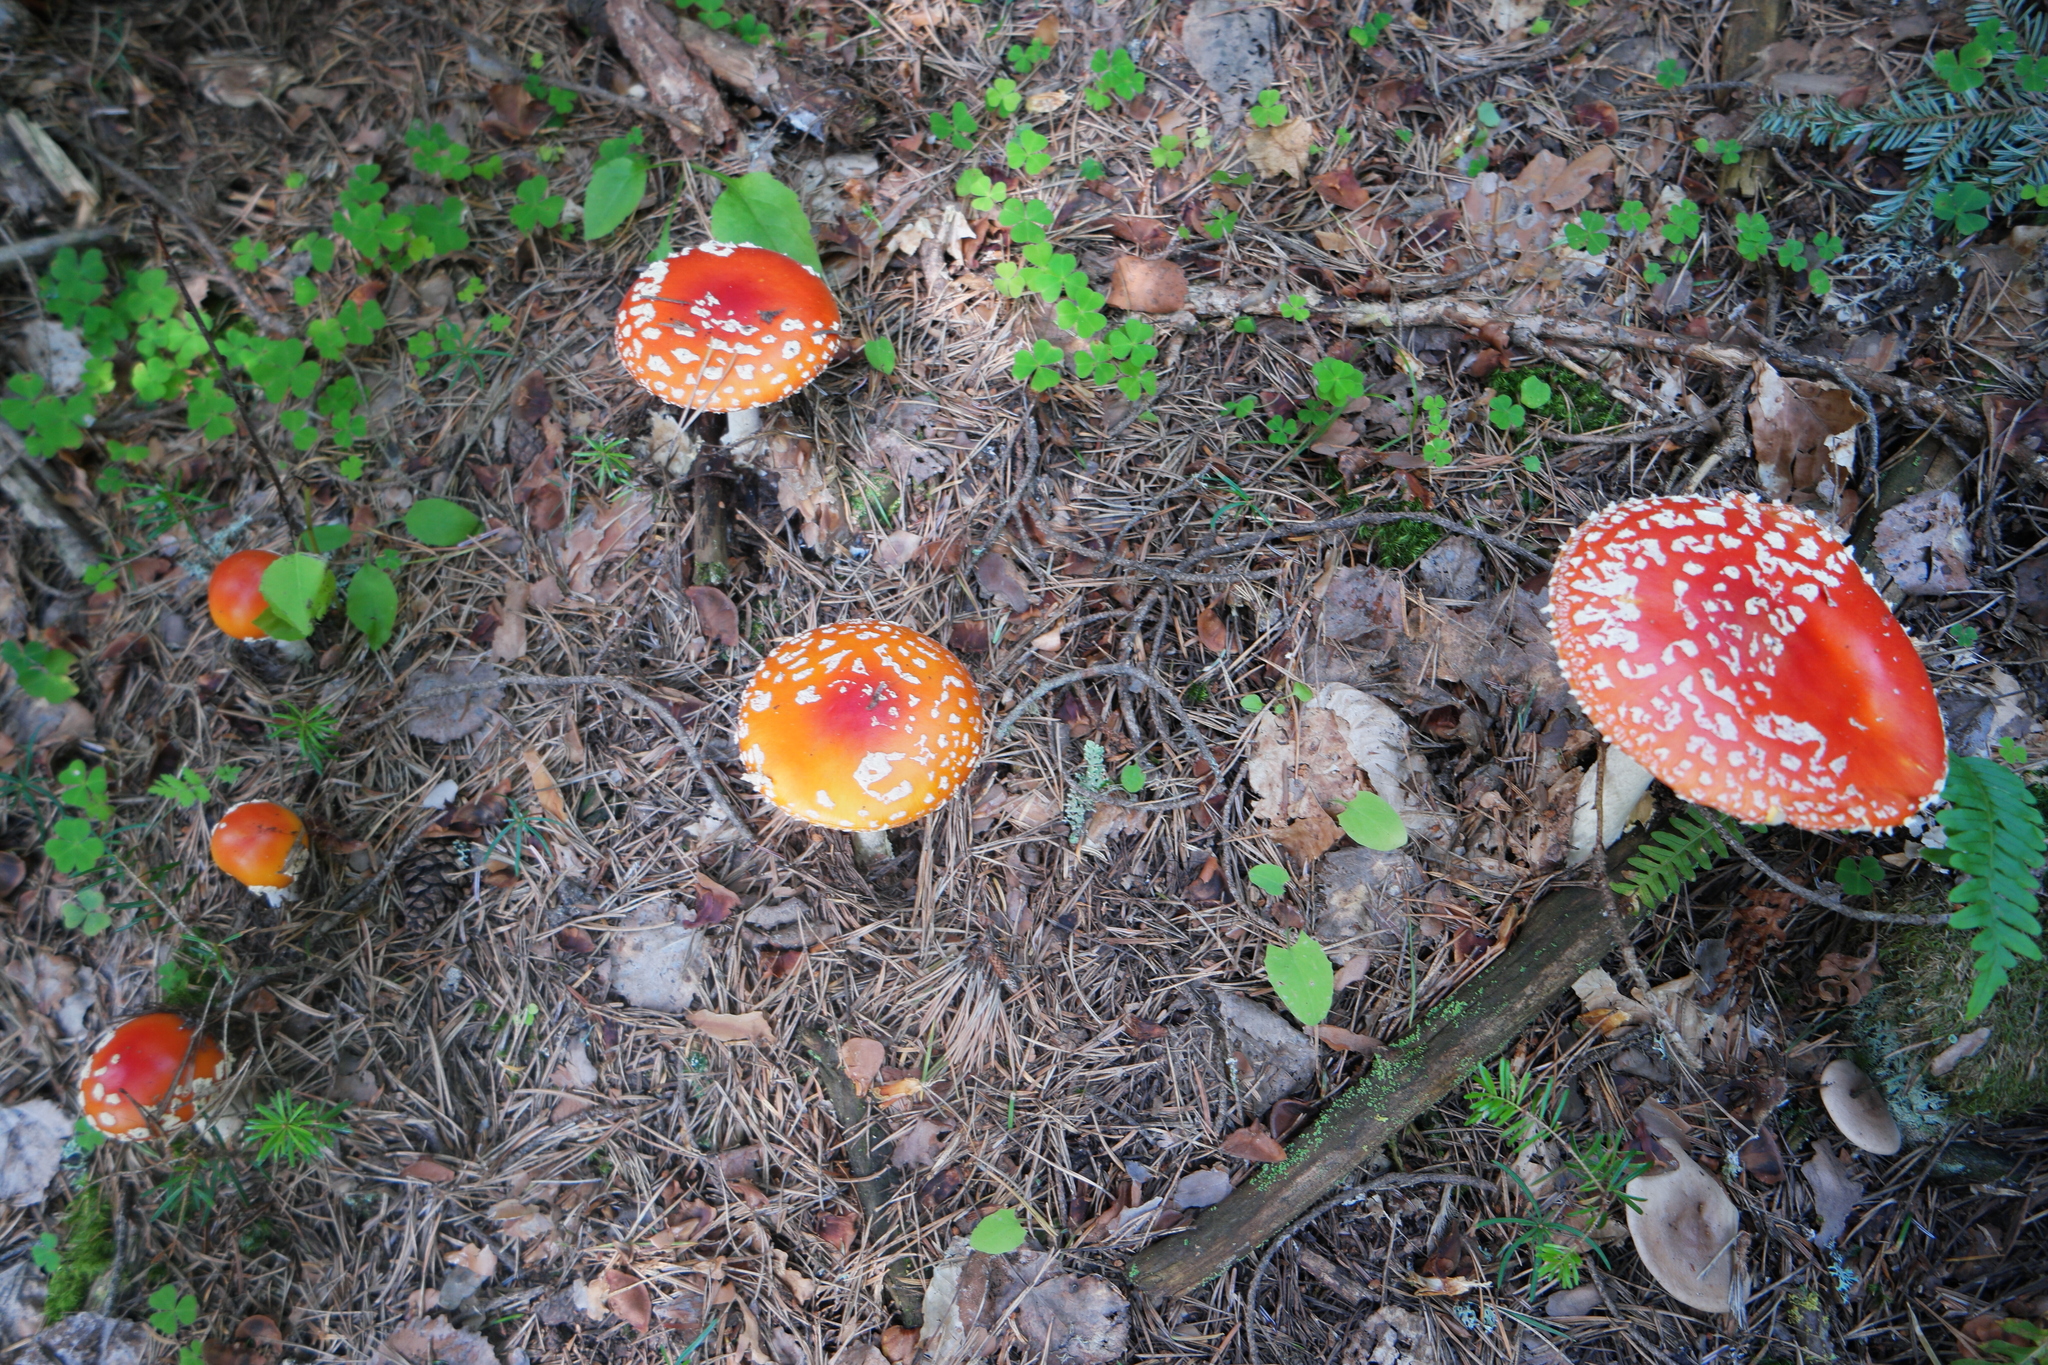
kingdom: Fungi
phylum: Basidiomycota
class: Agaricomycetes
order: Agaricales
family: Amanitaceae
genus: Amanita
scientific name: Amanita muscaria
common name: Fly agaric
